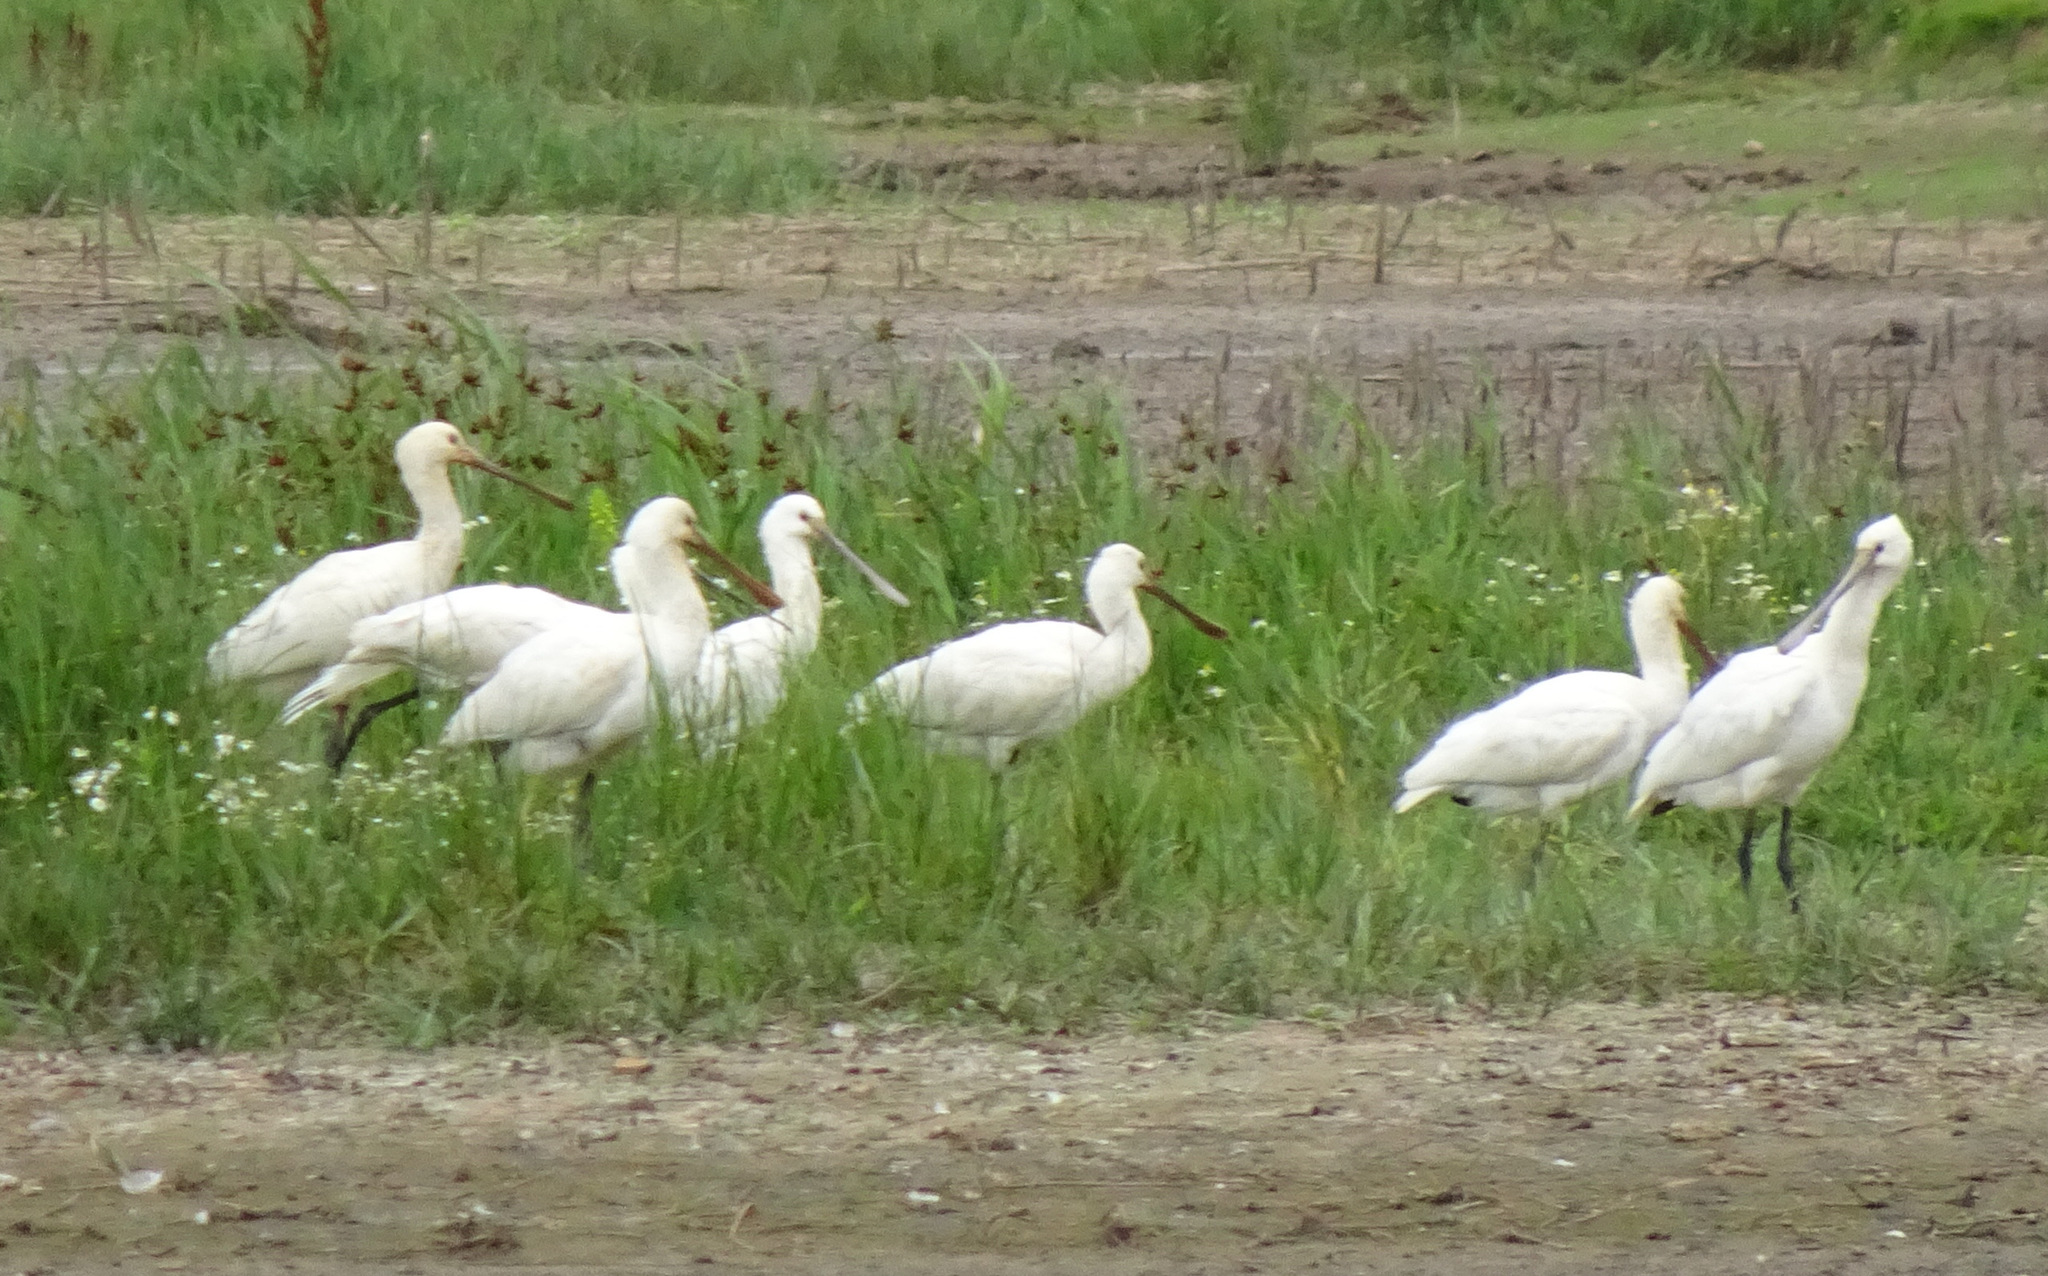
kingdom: Animalia
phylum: Chordata
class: Aves
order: Pelecaniformes
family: Threskiornithidae
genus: Platalea
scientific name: Platalea leucorodia
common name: Eurasian spoonbill
